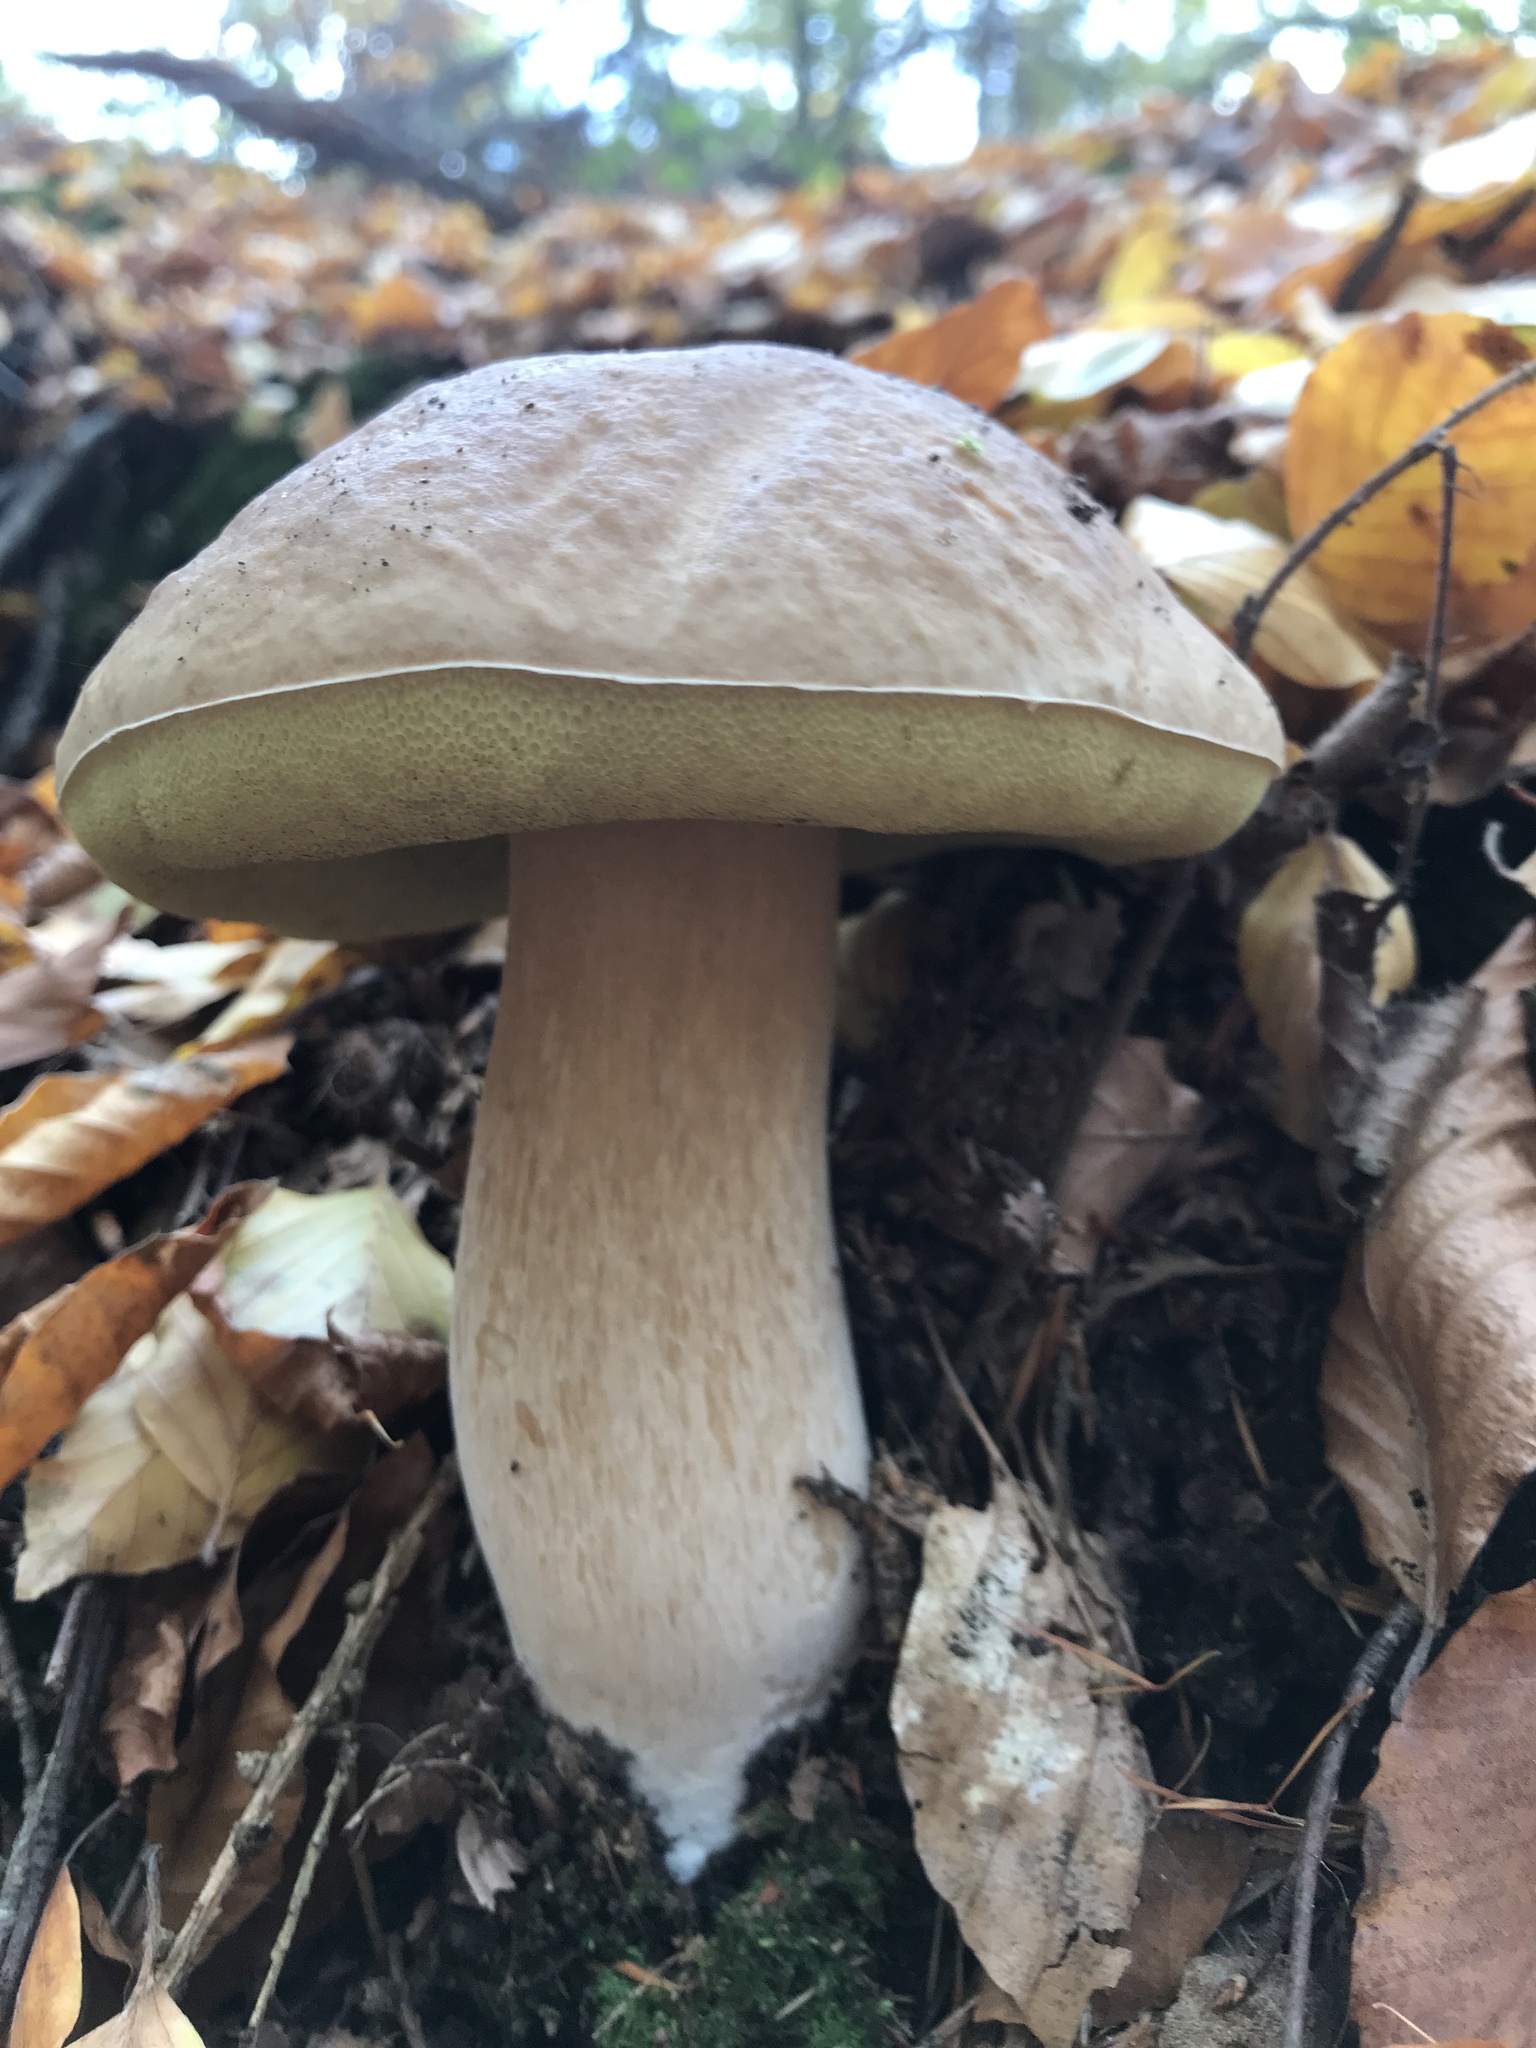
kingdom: Fungi
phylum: Basidiomycota
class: Agaricomycetes
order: Boletales
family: Boletaceae
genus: Boletus
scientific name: Boletus edulis
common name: Cep
